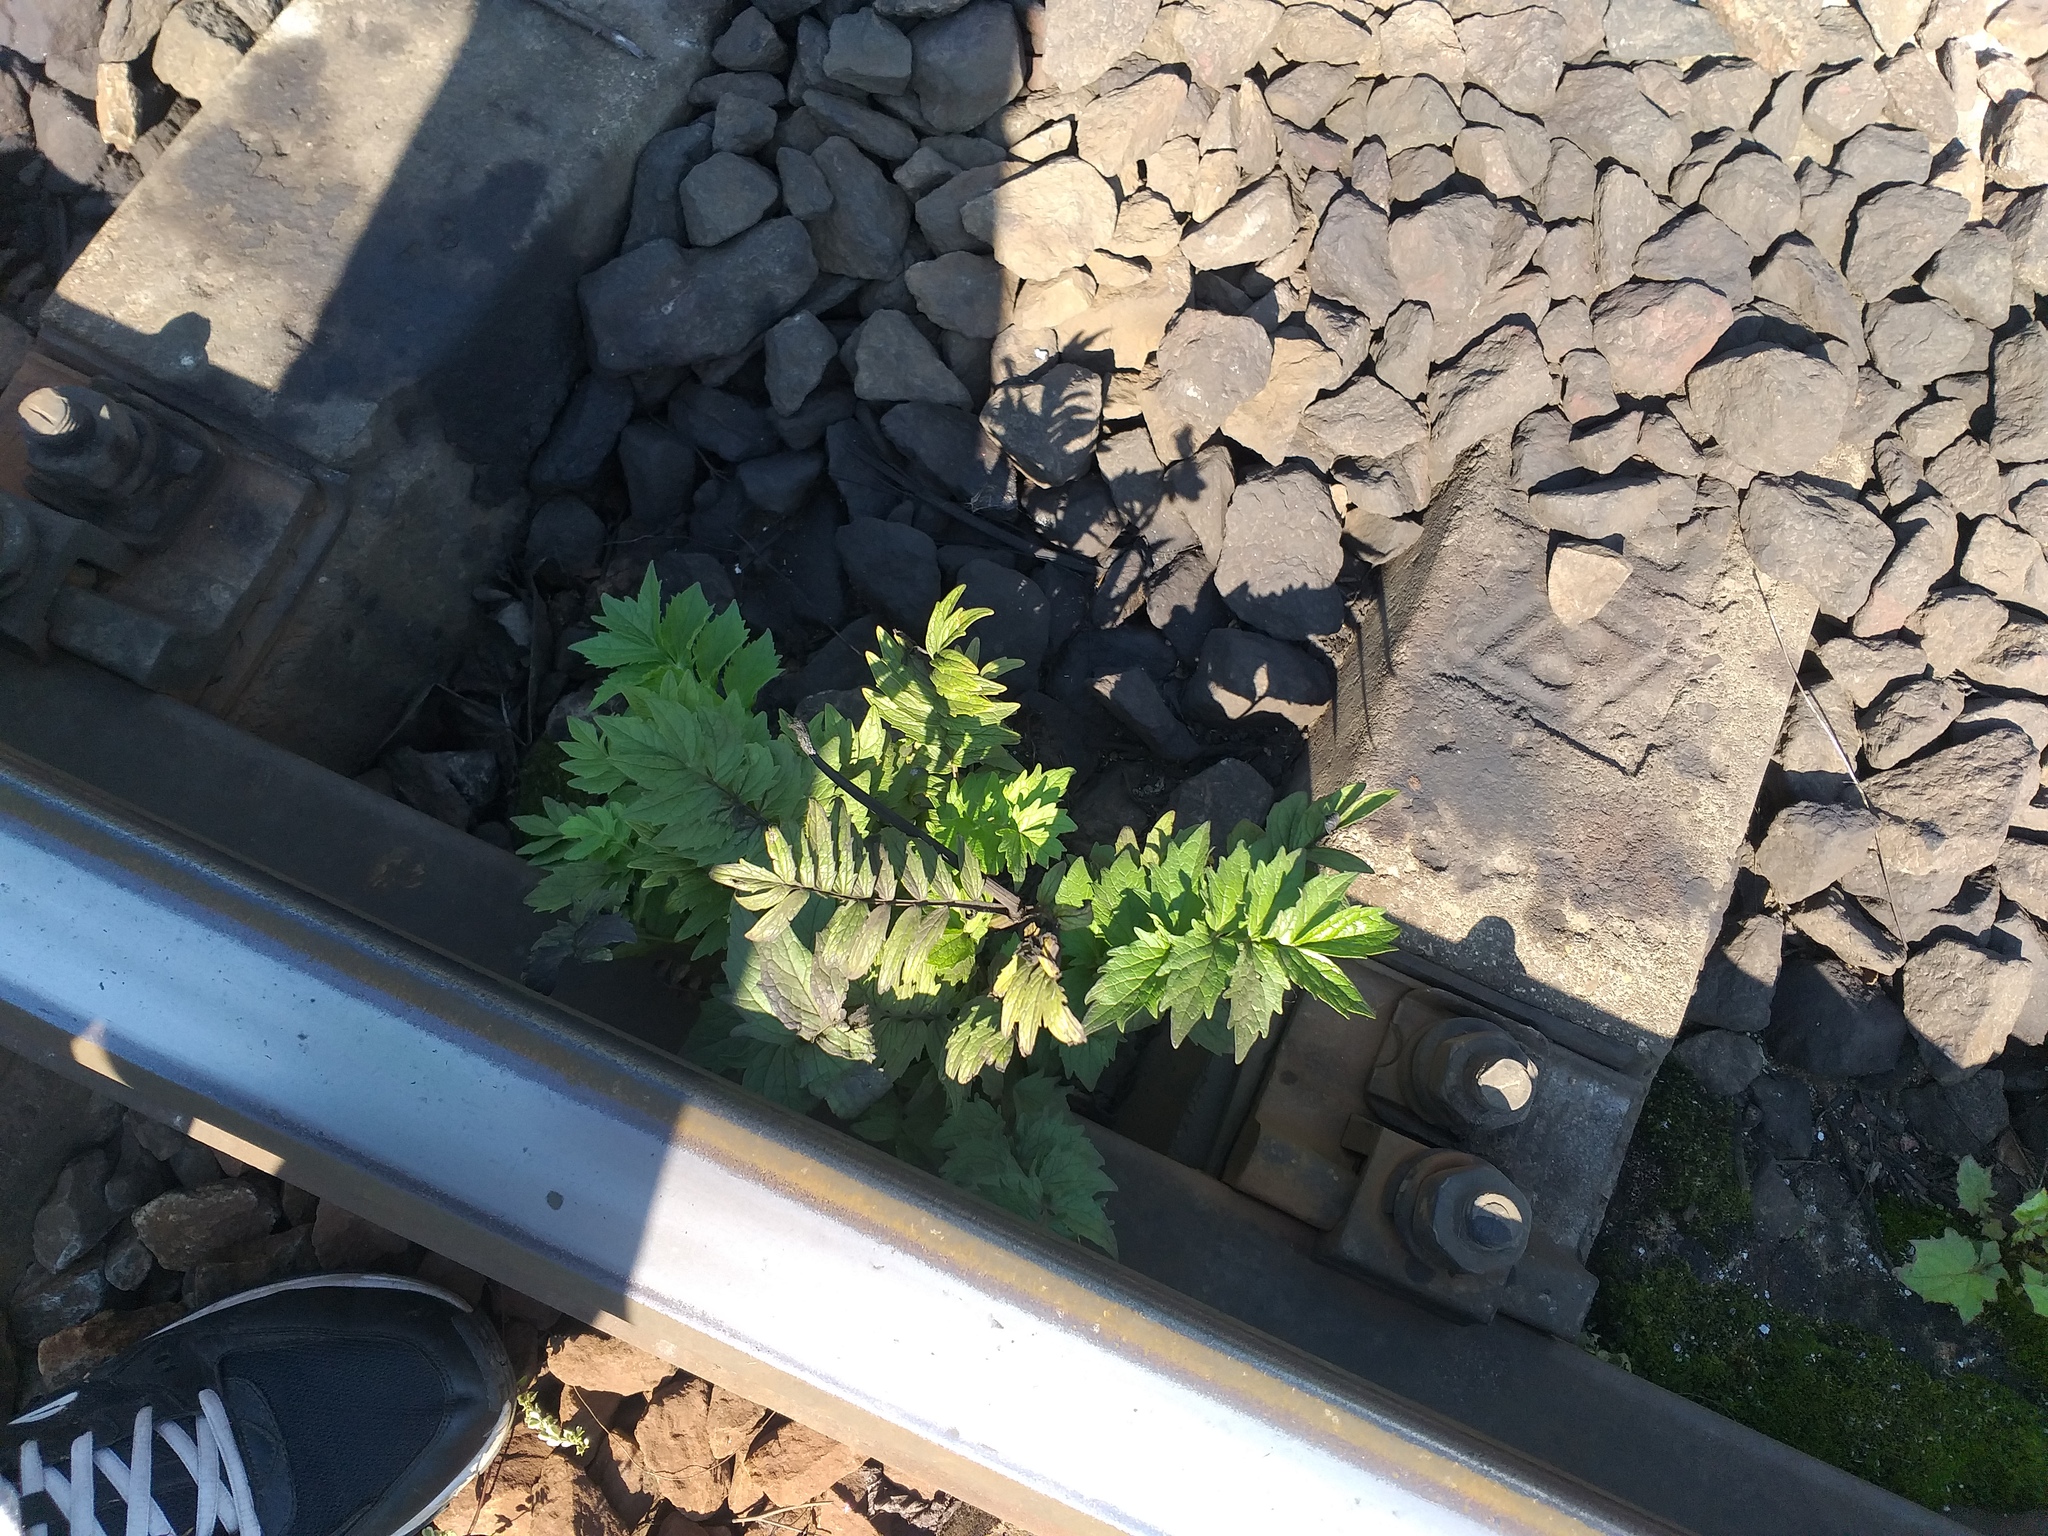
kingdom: Plantae
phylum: Tracheophyta
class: Magnoliopsida
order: Dipsacales
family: Caprifoliaceae
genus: Valeriana
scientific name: Valeriana officinalis
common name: Common valerian
